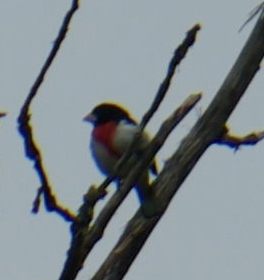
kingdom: Animalia
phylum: Chordata
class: Aves
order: Passeriformes
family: Cardinalidae
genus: Pheucticus
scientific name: Pheucticus ludovicianus
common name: Rose-breasted grosbeak
